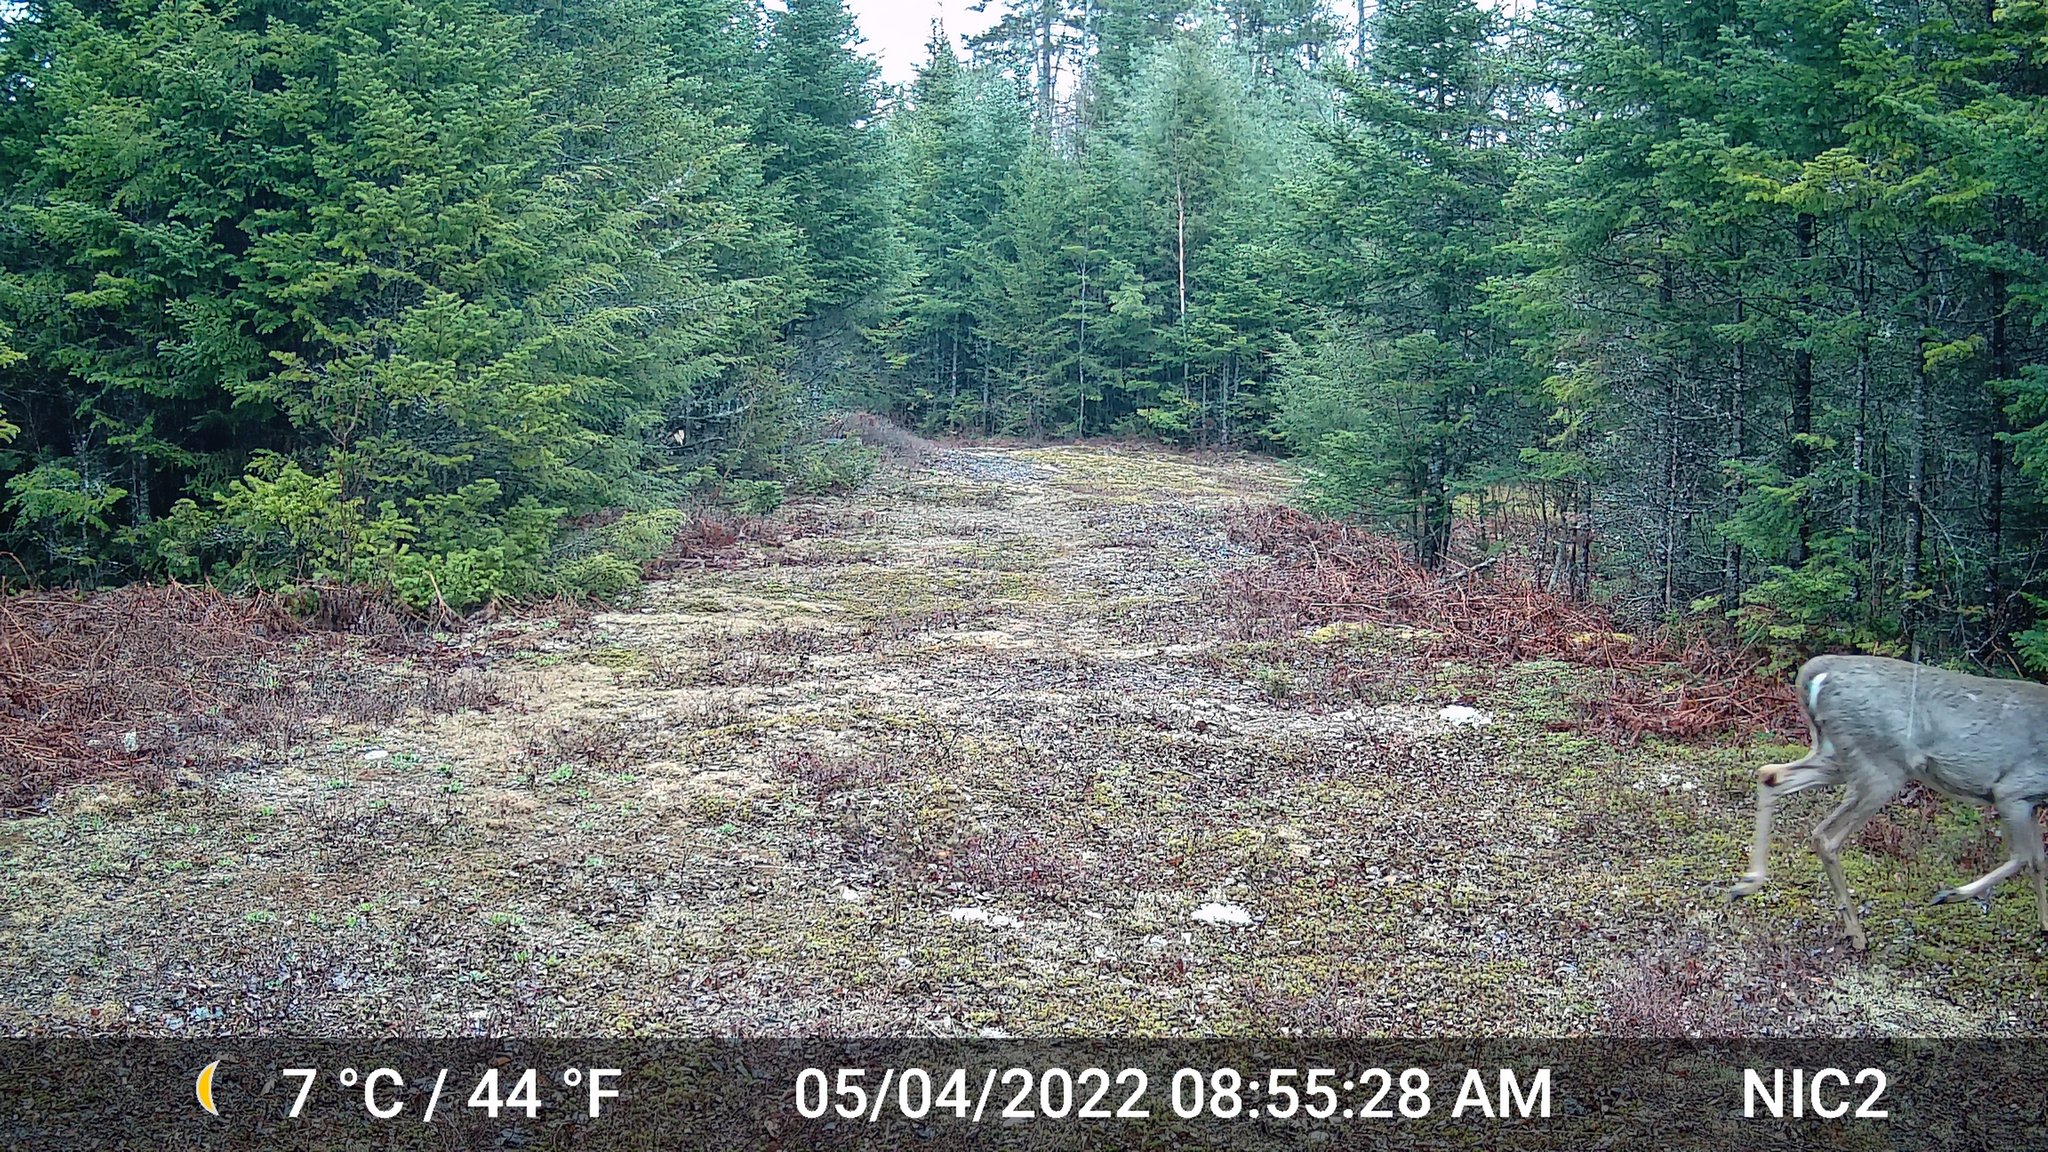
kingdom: Animalia
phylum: Chordata
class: Mammalia
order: Artiodactyla
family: Cervidae
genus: Odocoileus
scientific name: Odocoileus virginianus
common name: White-tailed deer
